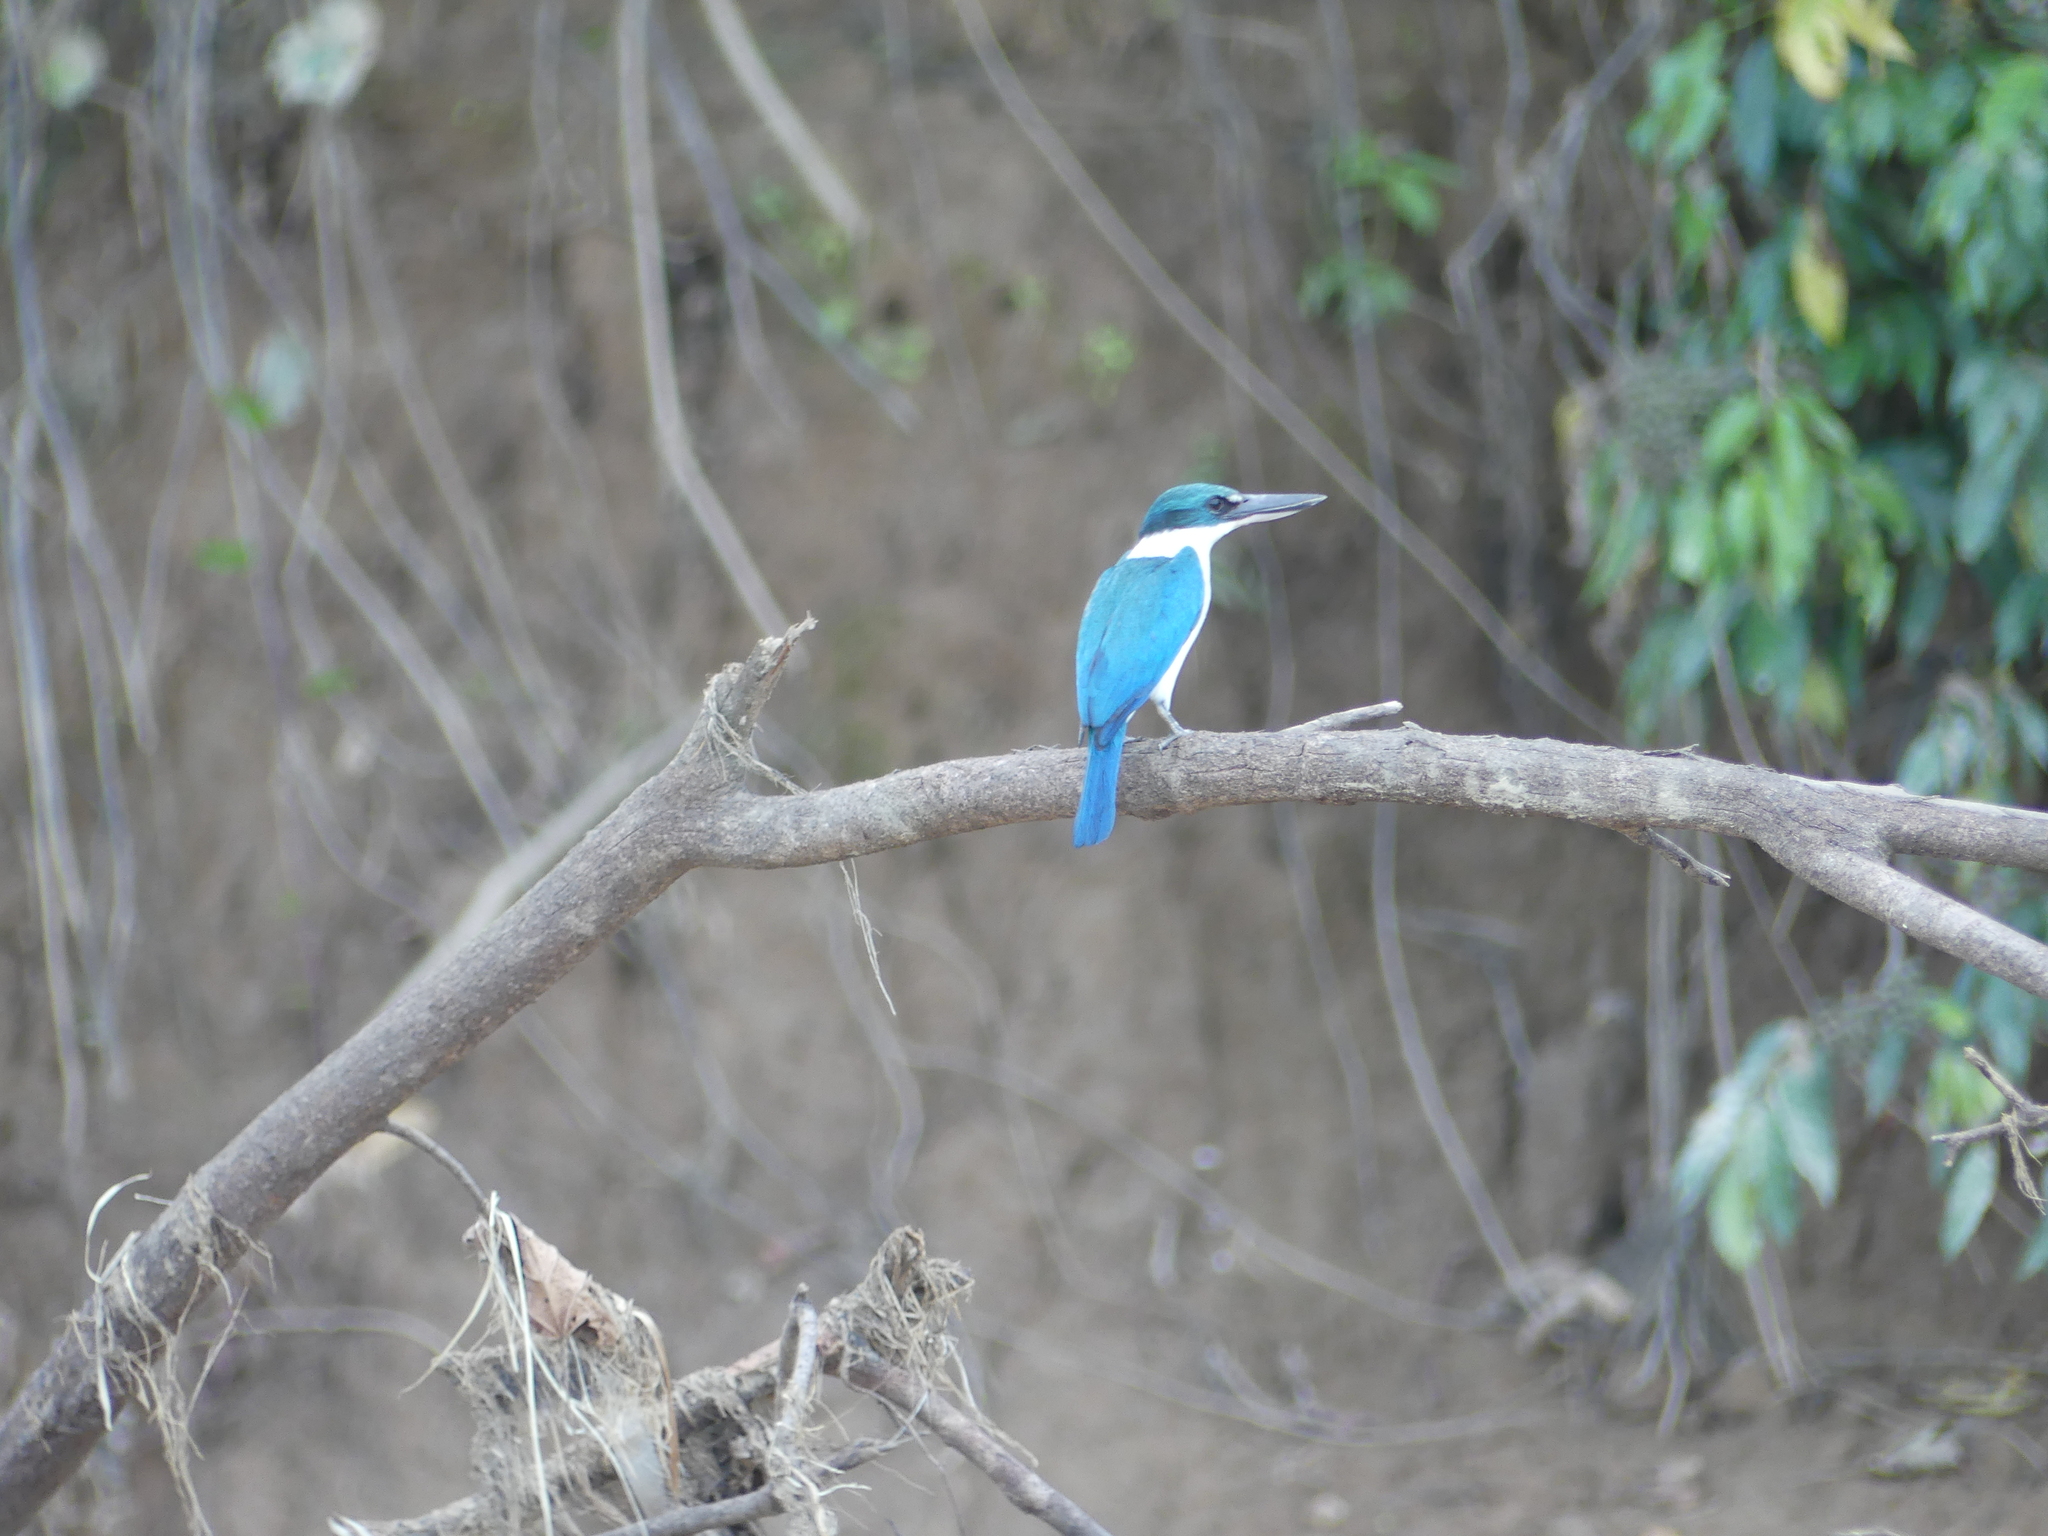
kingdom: Animalia
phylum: Chordata
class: Aves
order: Coraciiformes
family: Alcedinidae
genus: Todiramphus
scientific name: Todiramphus chloris
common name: Collared kingfisher
